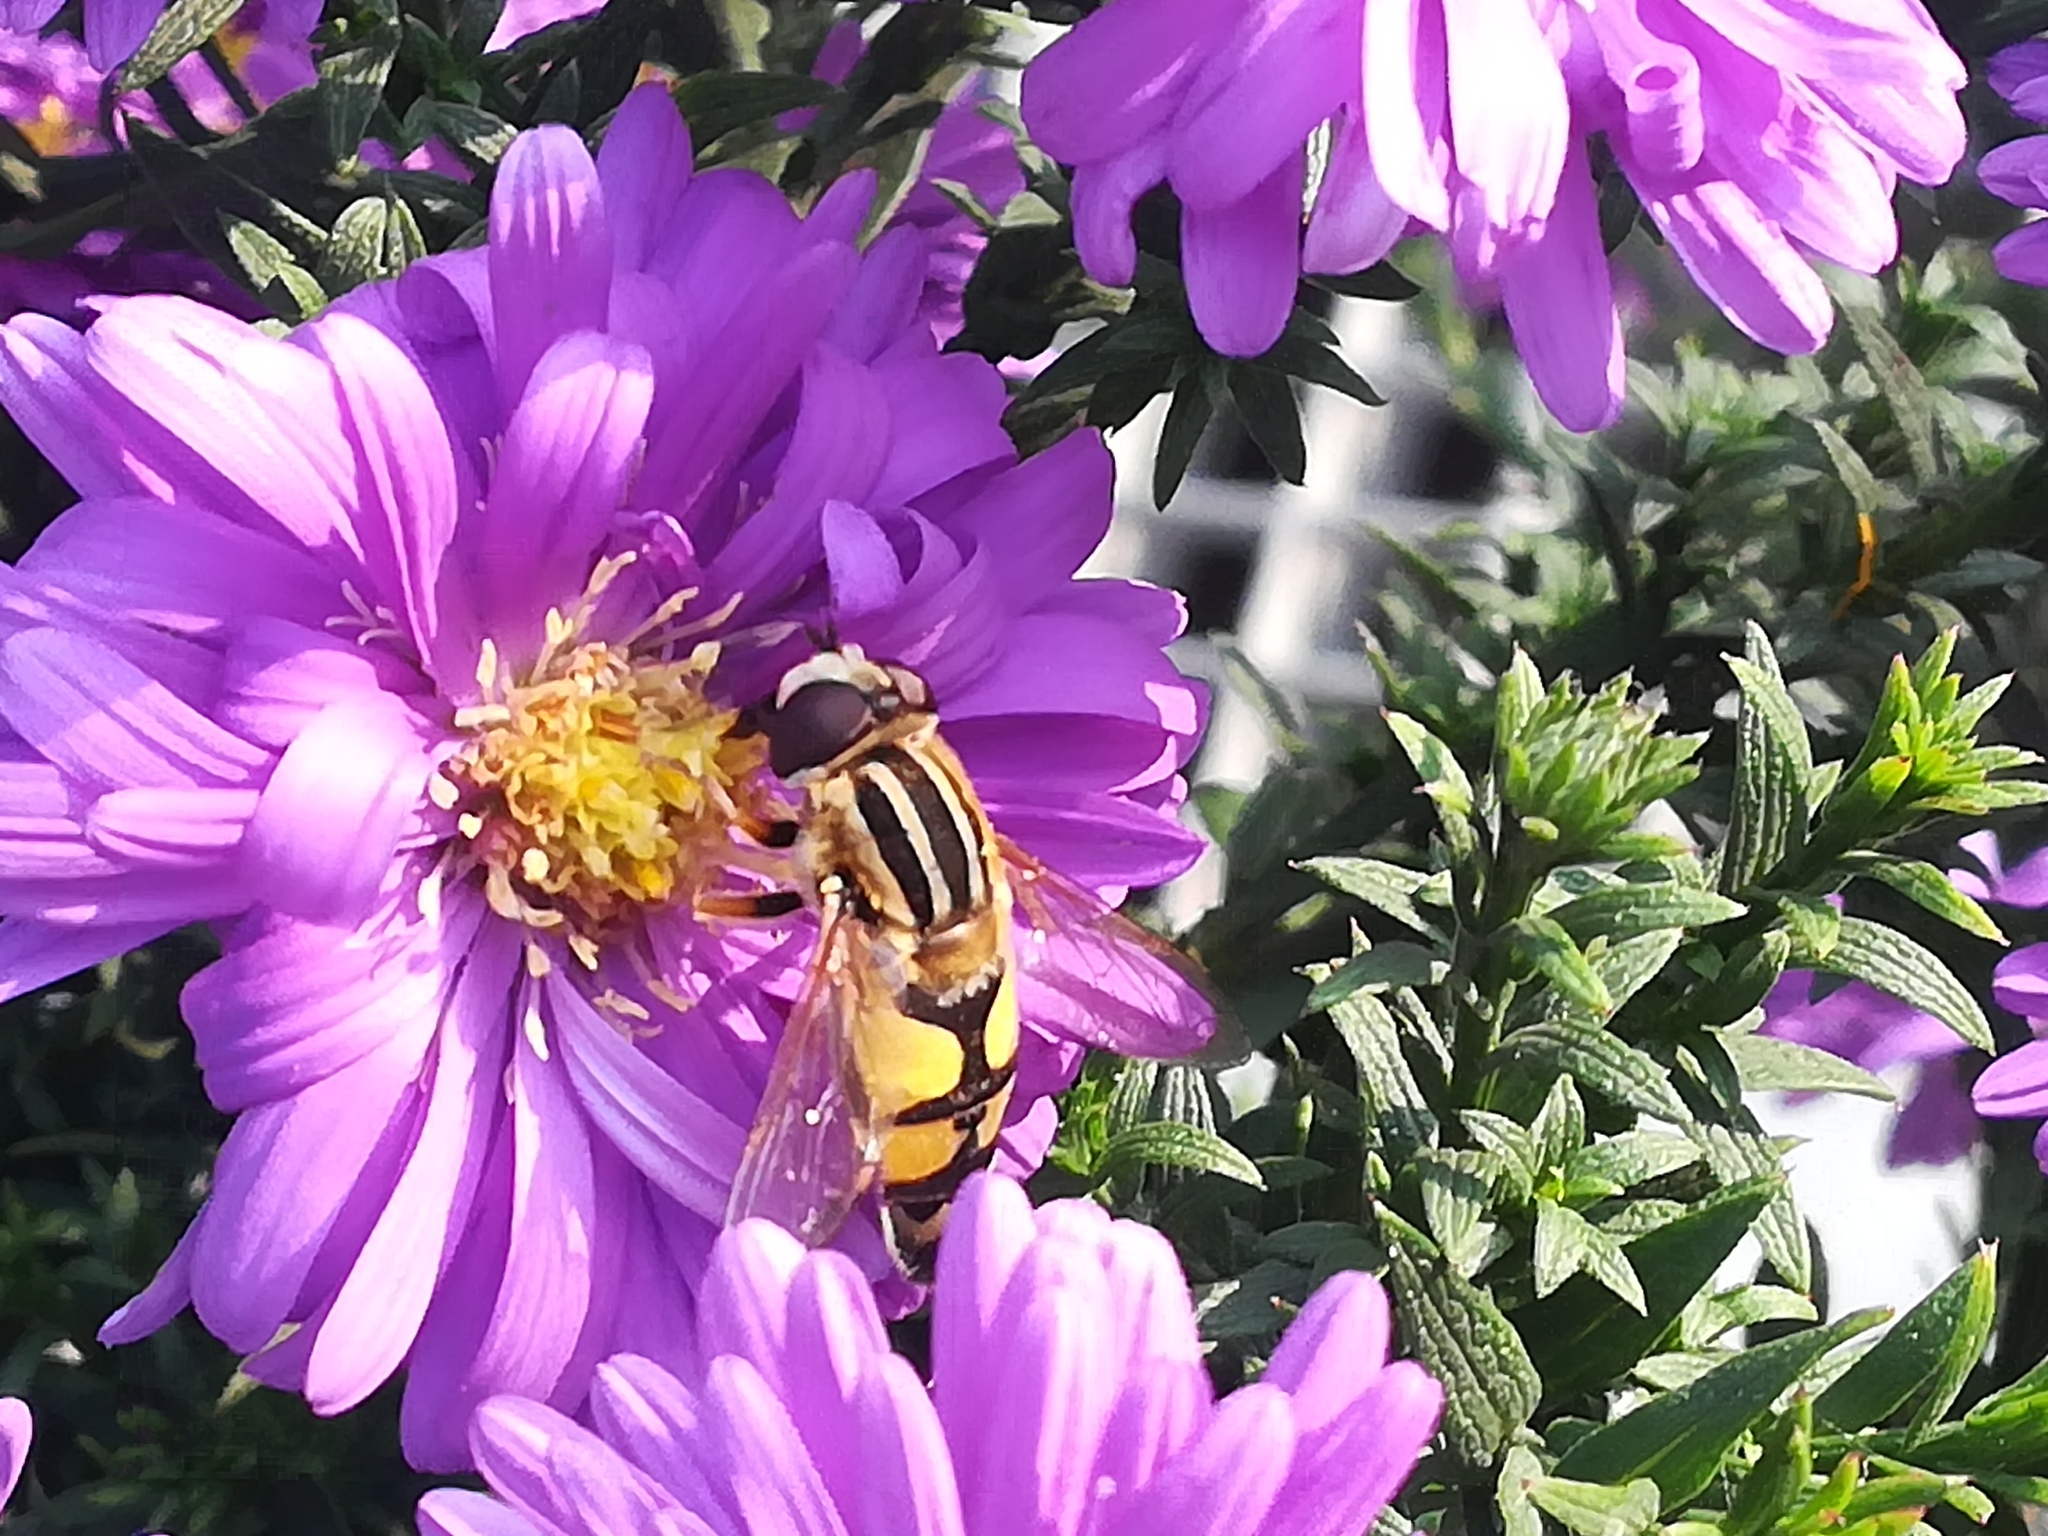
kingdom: Animalia
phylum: Arthropoda
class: Insecta
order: Diptera
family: Syrphidae
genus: Helophilus
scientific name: Helophilus trivittatus
